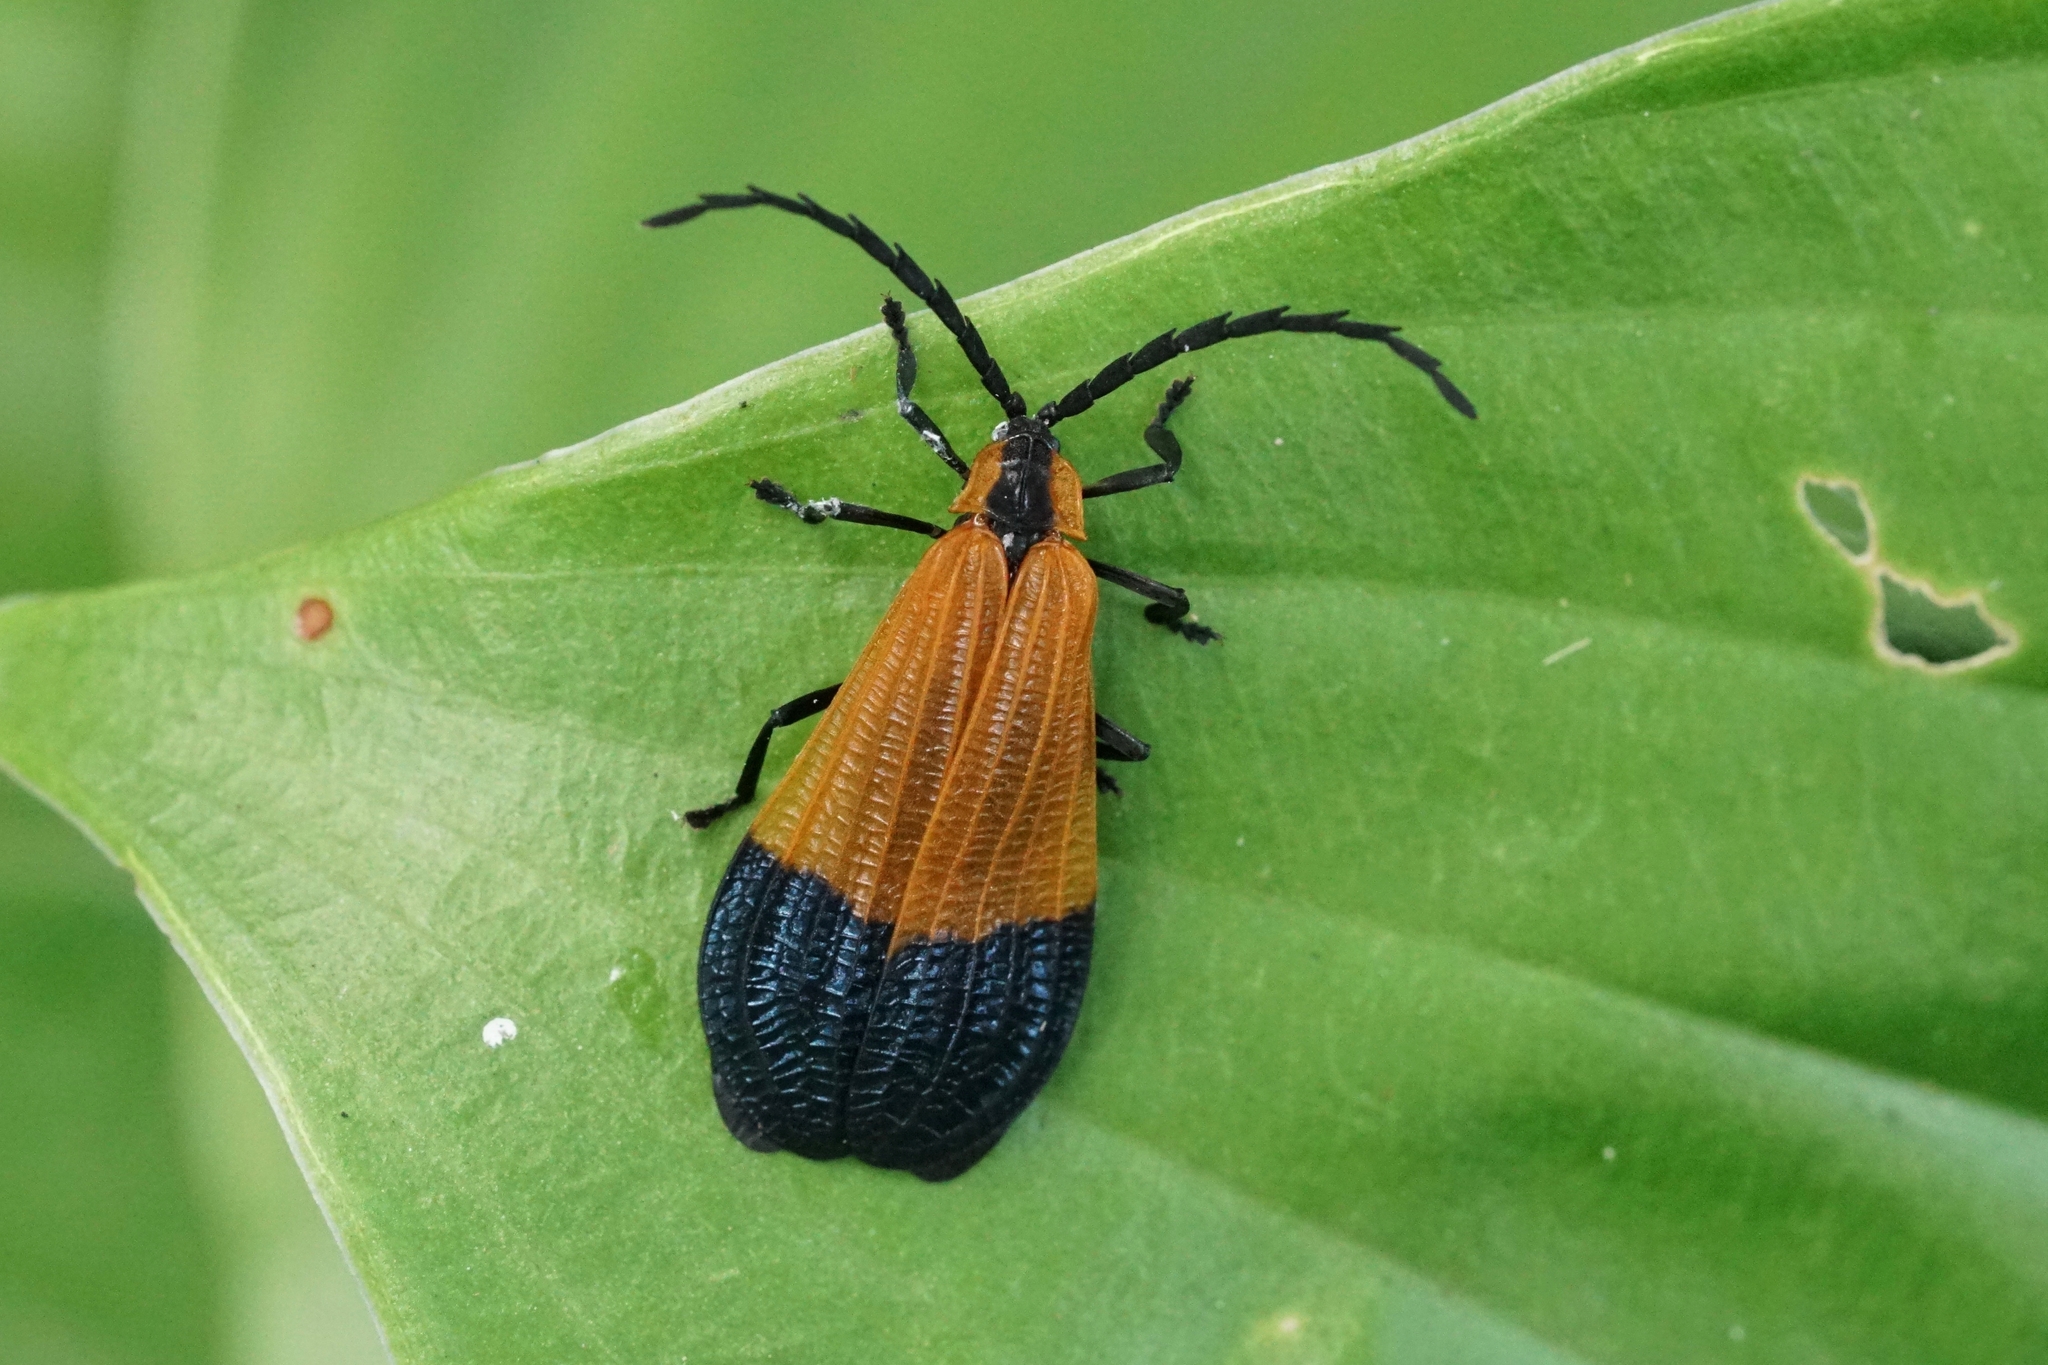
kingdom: Animalia
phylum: Arthropoda
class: Insecta
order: Coleoptera
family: Lycidae
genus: Calopteron
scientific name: Calopteron terminale
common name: End band net-winged beetle
